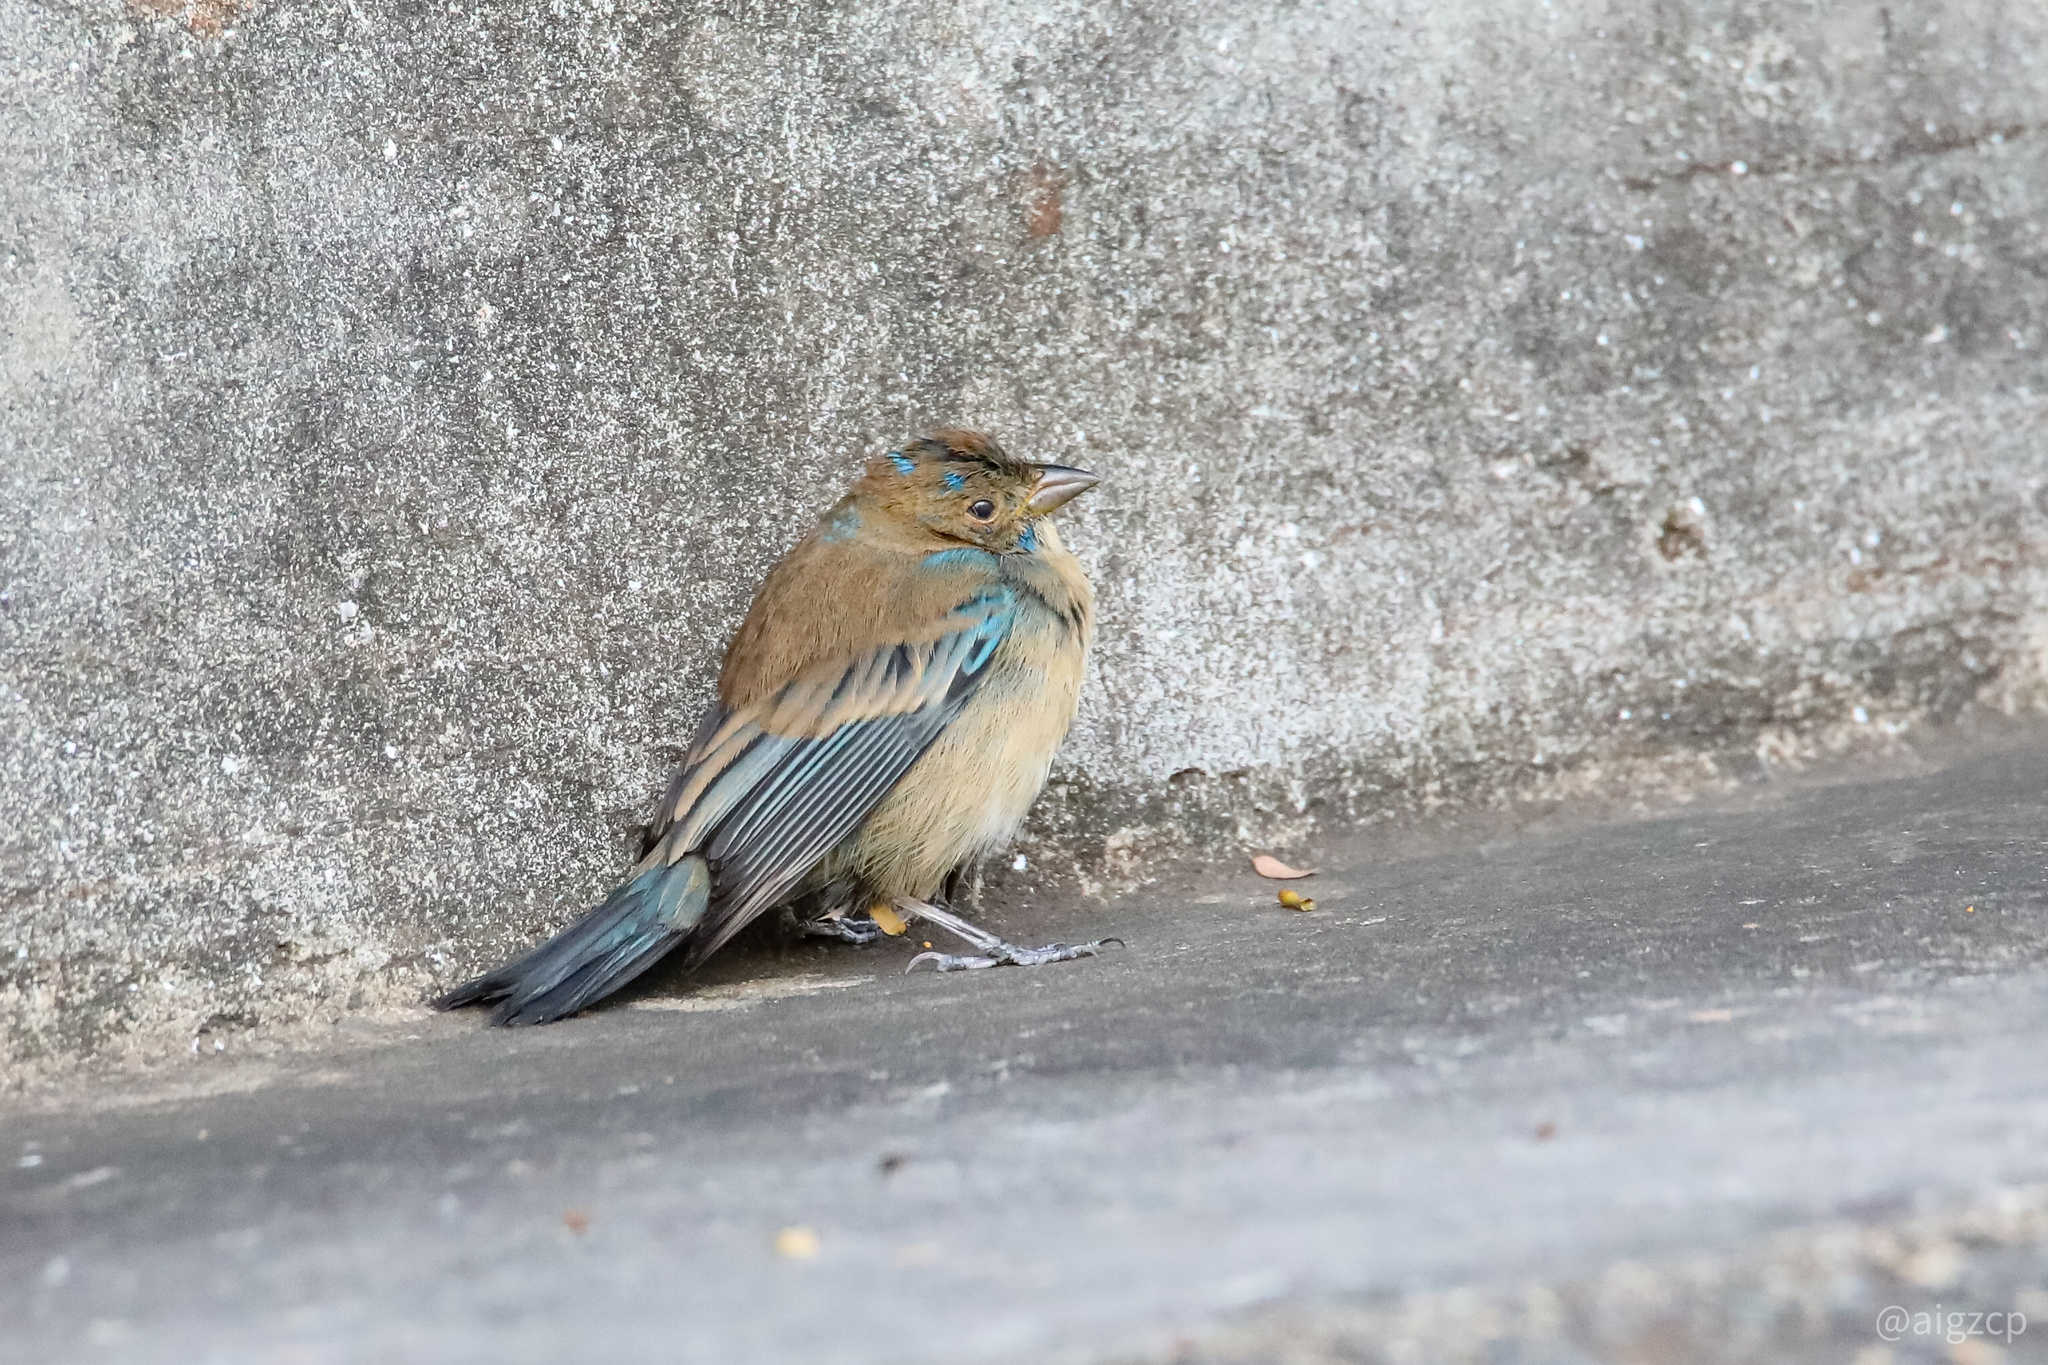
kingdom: Animalia
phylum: Chordata
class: Aves
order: Passeriformes
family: Cardinalidae
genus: Passerina
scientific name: Passerina cyanea
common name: Indigo bunting
